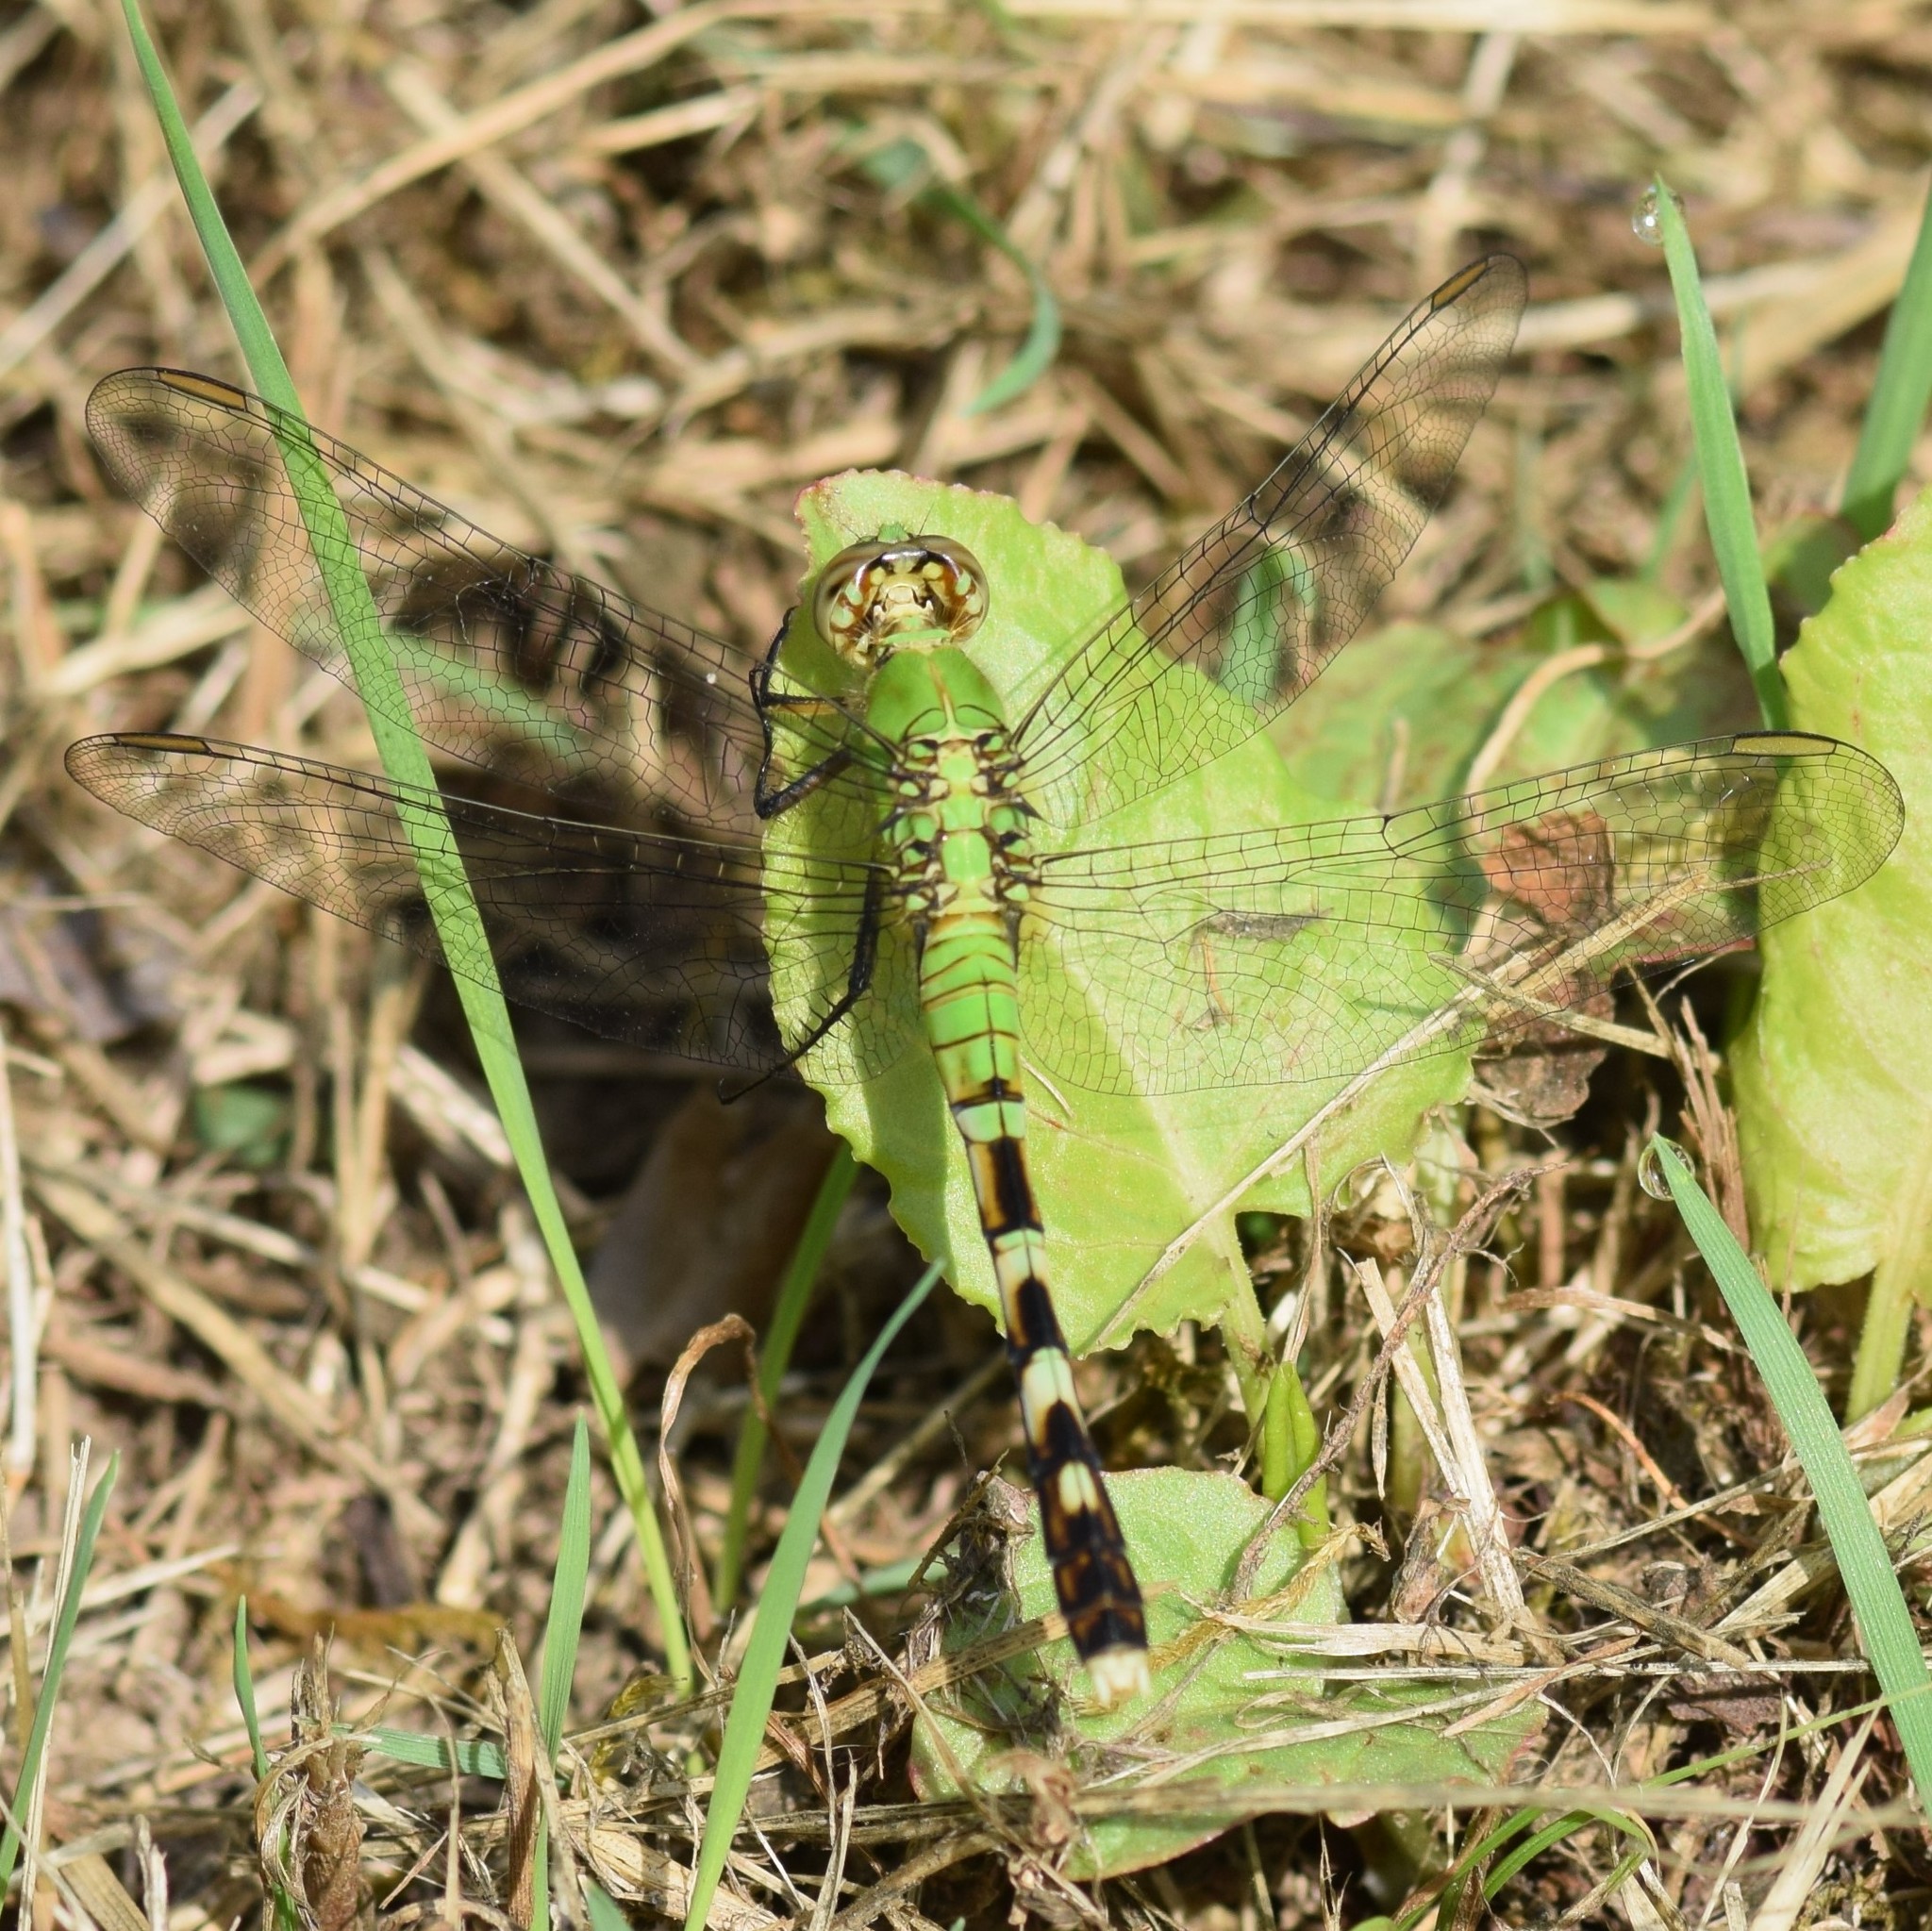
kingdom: Animalia
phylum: Arthropoda
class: Insecta
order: Odonata
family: Libellulidae
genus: Erythemis
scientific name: Erythemis simplicicollis
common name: Eastern pondhawk
